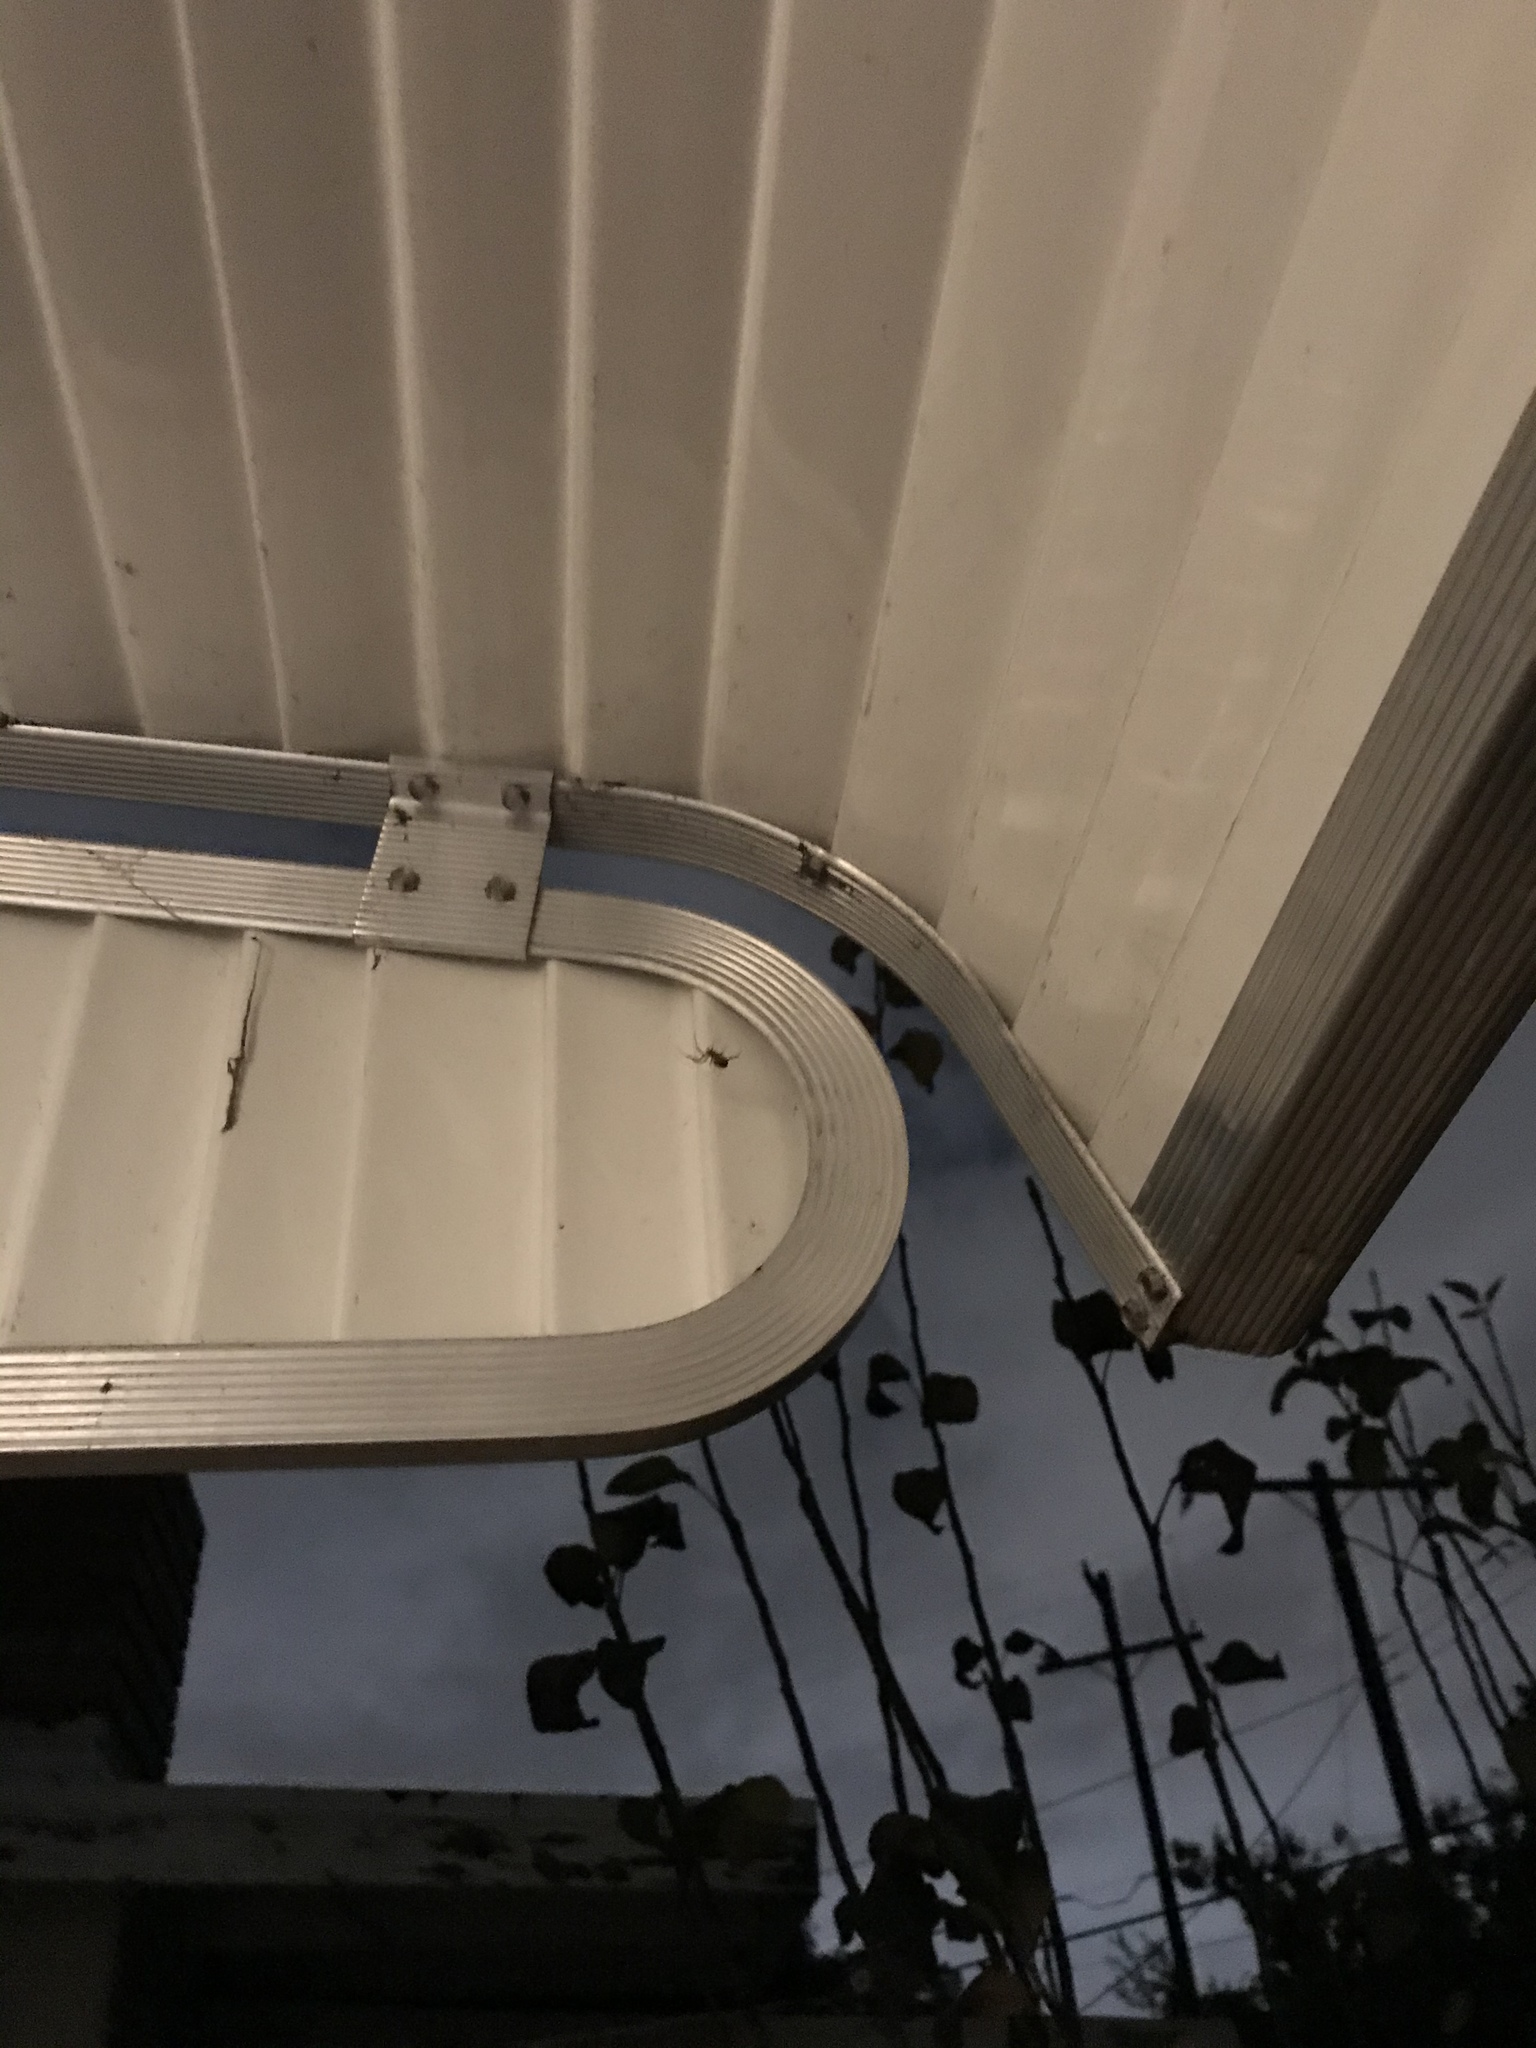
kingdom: Animalia
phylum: Arthropoda
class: Arachnida
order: Araneae
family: Theridiidae
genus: Steatoda
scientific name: Steatoda nobilis
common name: Cobweb weaver
